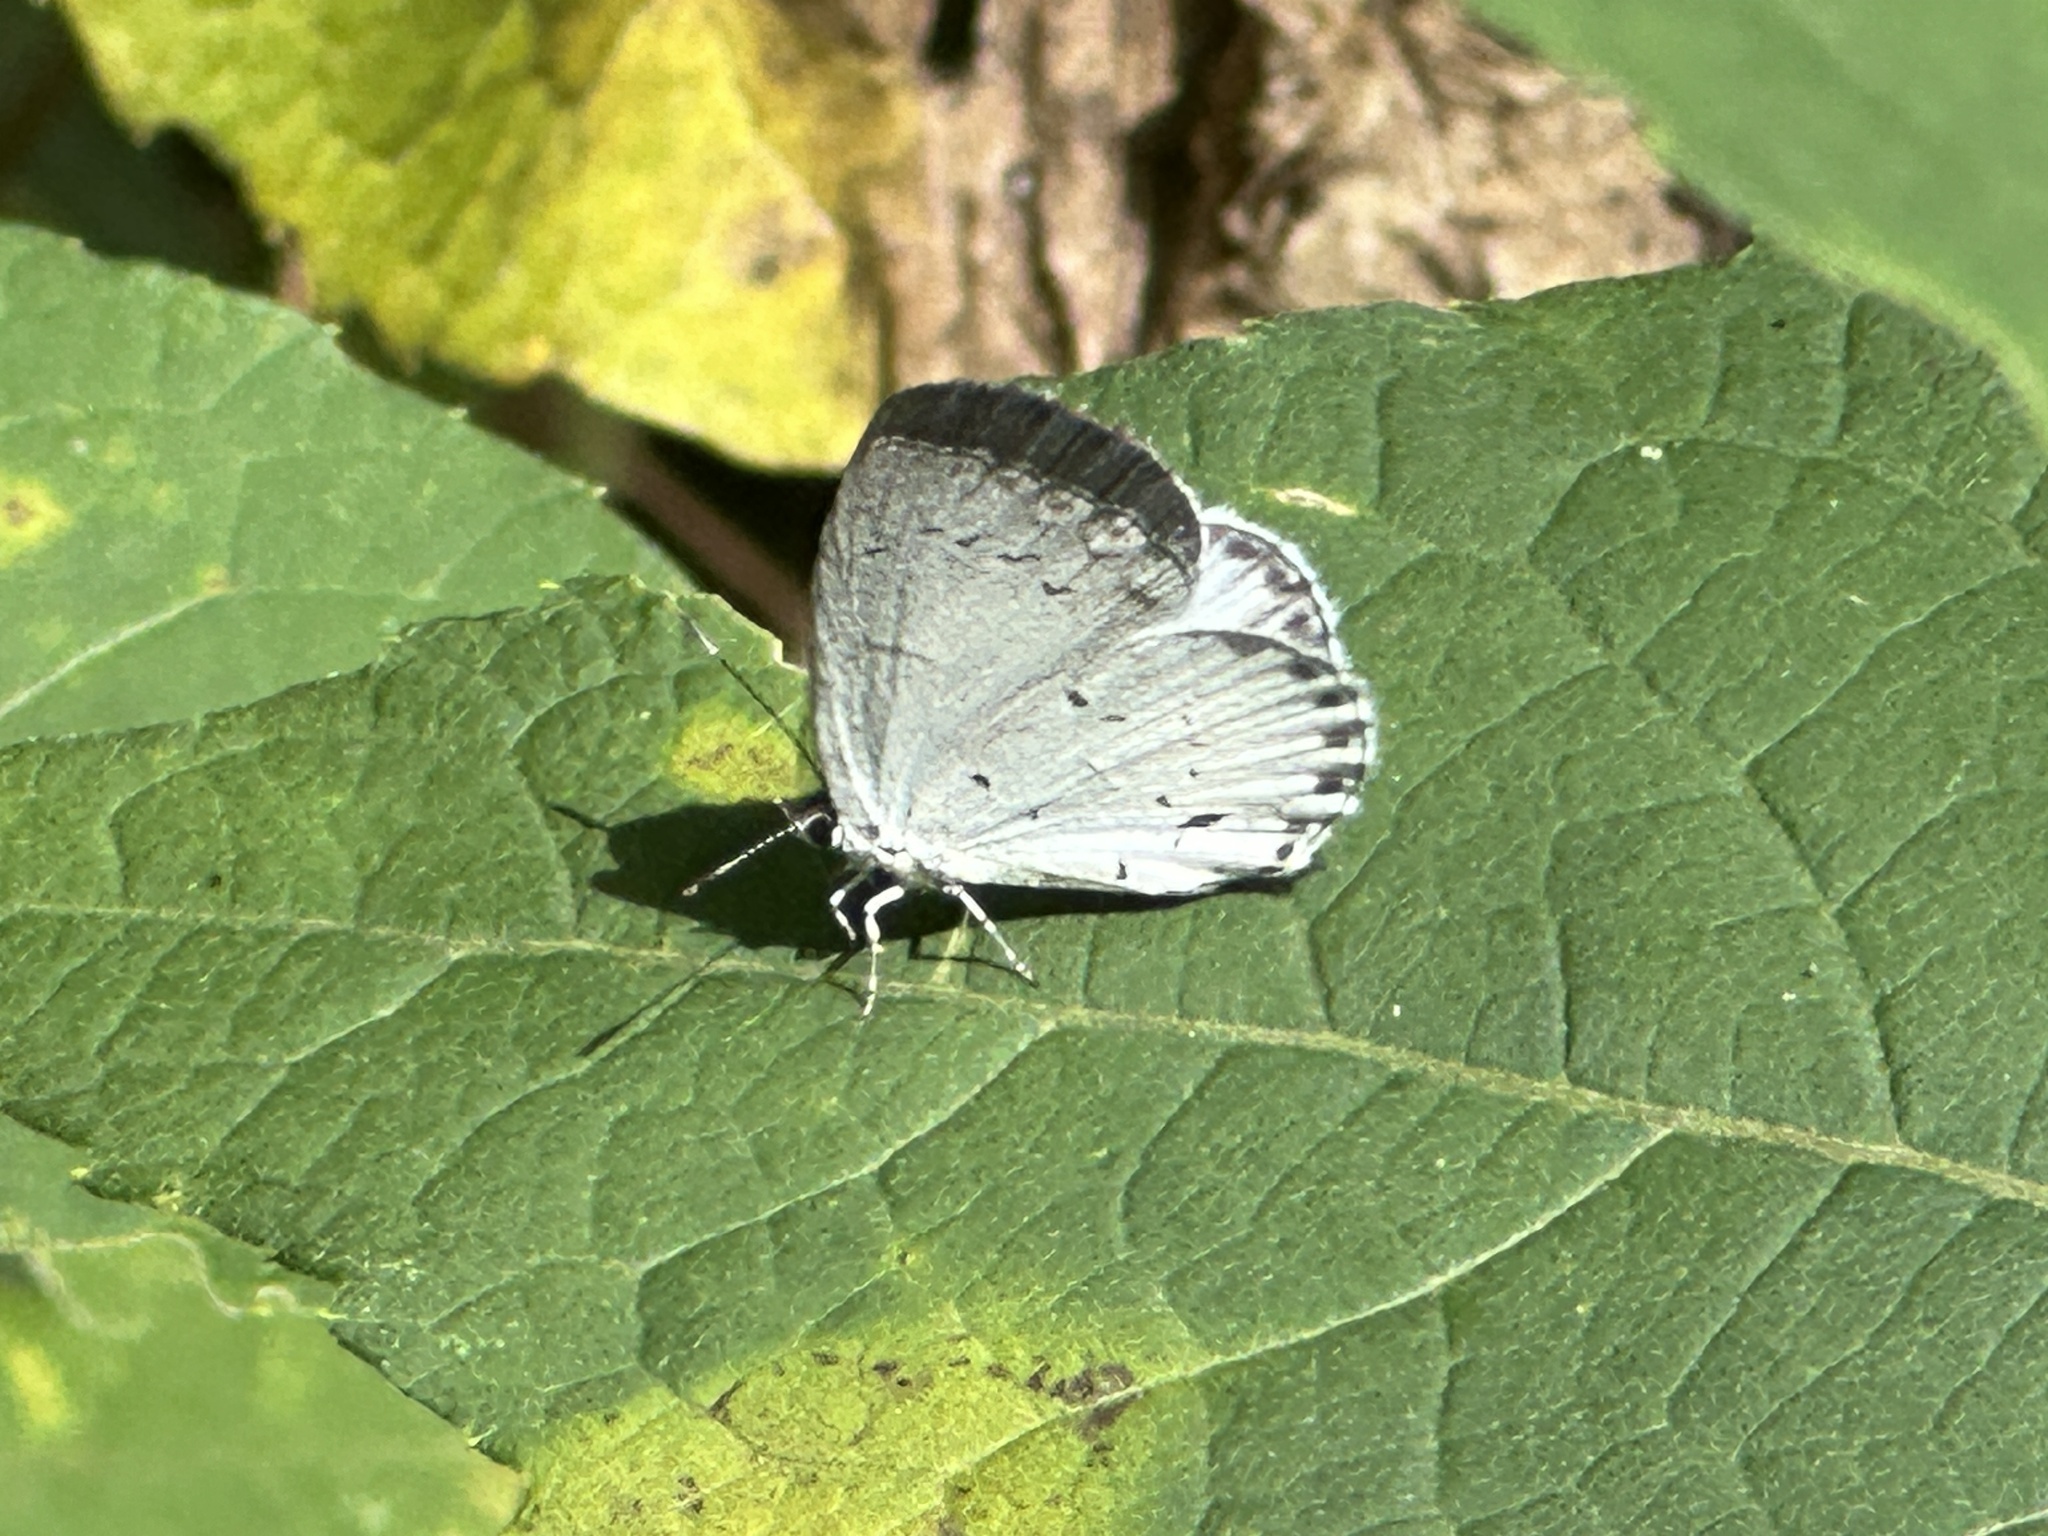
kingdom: Animalia
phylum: Arthropoda
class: Insecta
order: Lepidoptera
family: Lycaenidae
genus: Cyaniris
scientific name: Cyaniris neglecta
